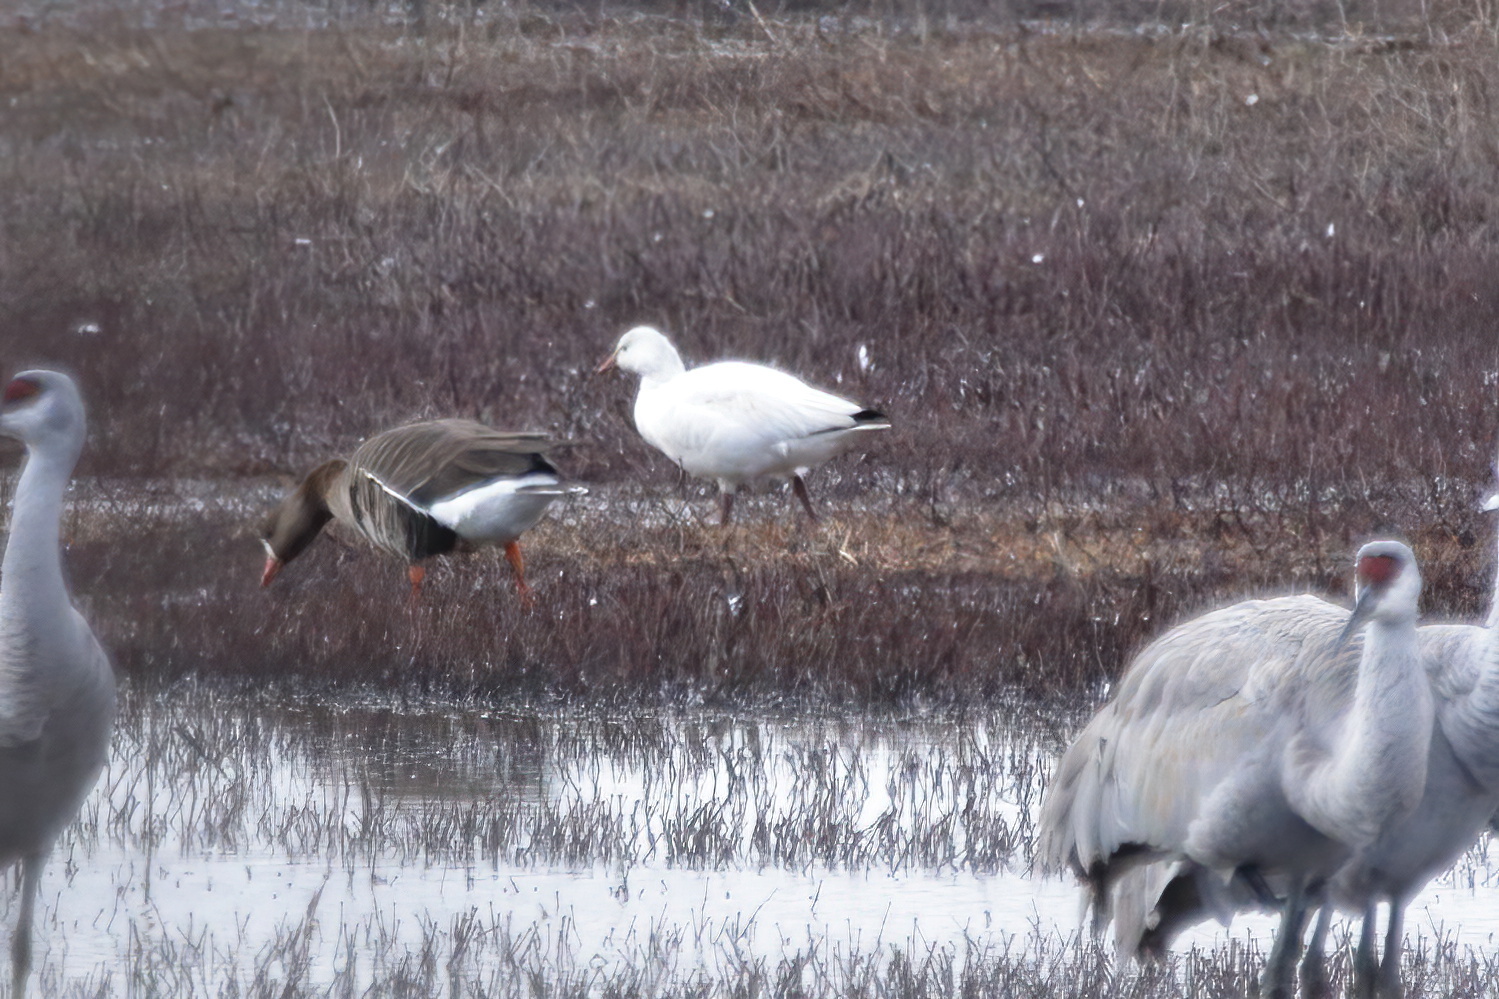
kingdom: Animalia
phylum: Chordata
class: Aves
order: Anseriformes
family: Anatidae
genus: Anser
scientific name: Anser albifrons
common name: Greater white-fronted goose
